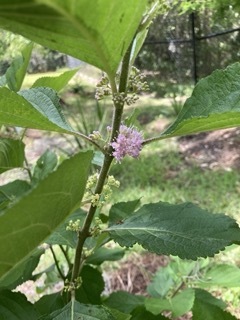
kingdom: Plantae
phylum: Tracheophyta
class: Magnoliopsida
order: Lamiales
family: Lamiaceae
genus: Callicarpa
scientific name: Callicarpa americana
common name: American beautyberry
